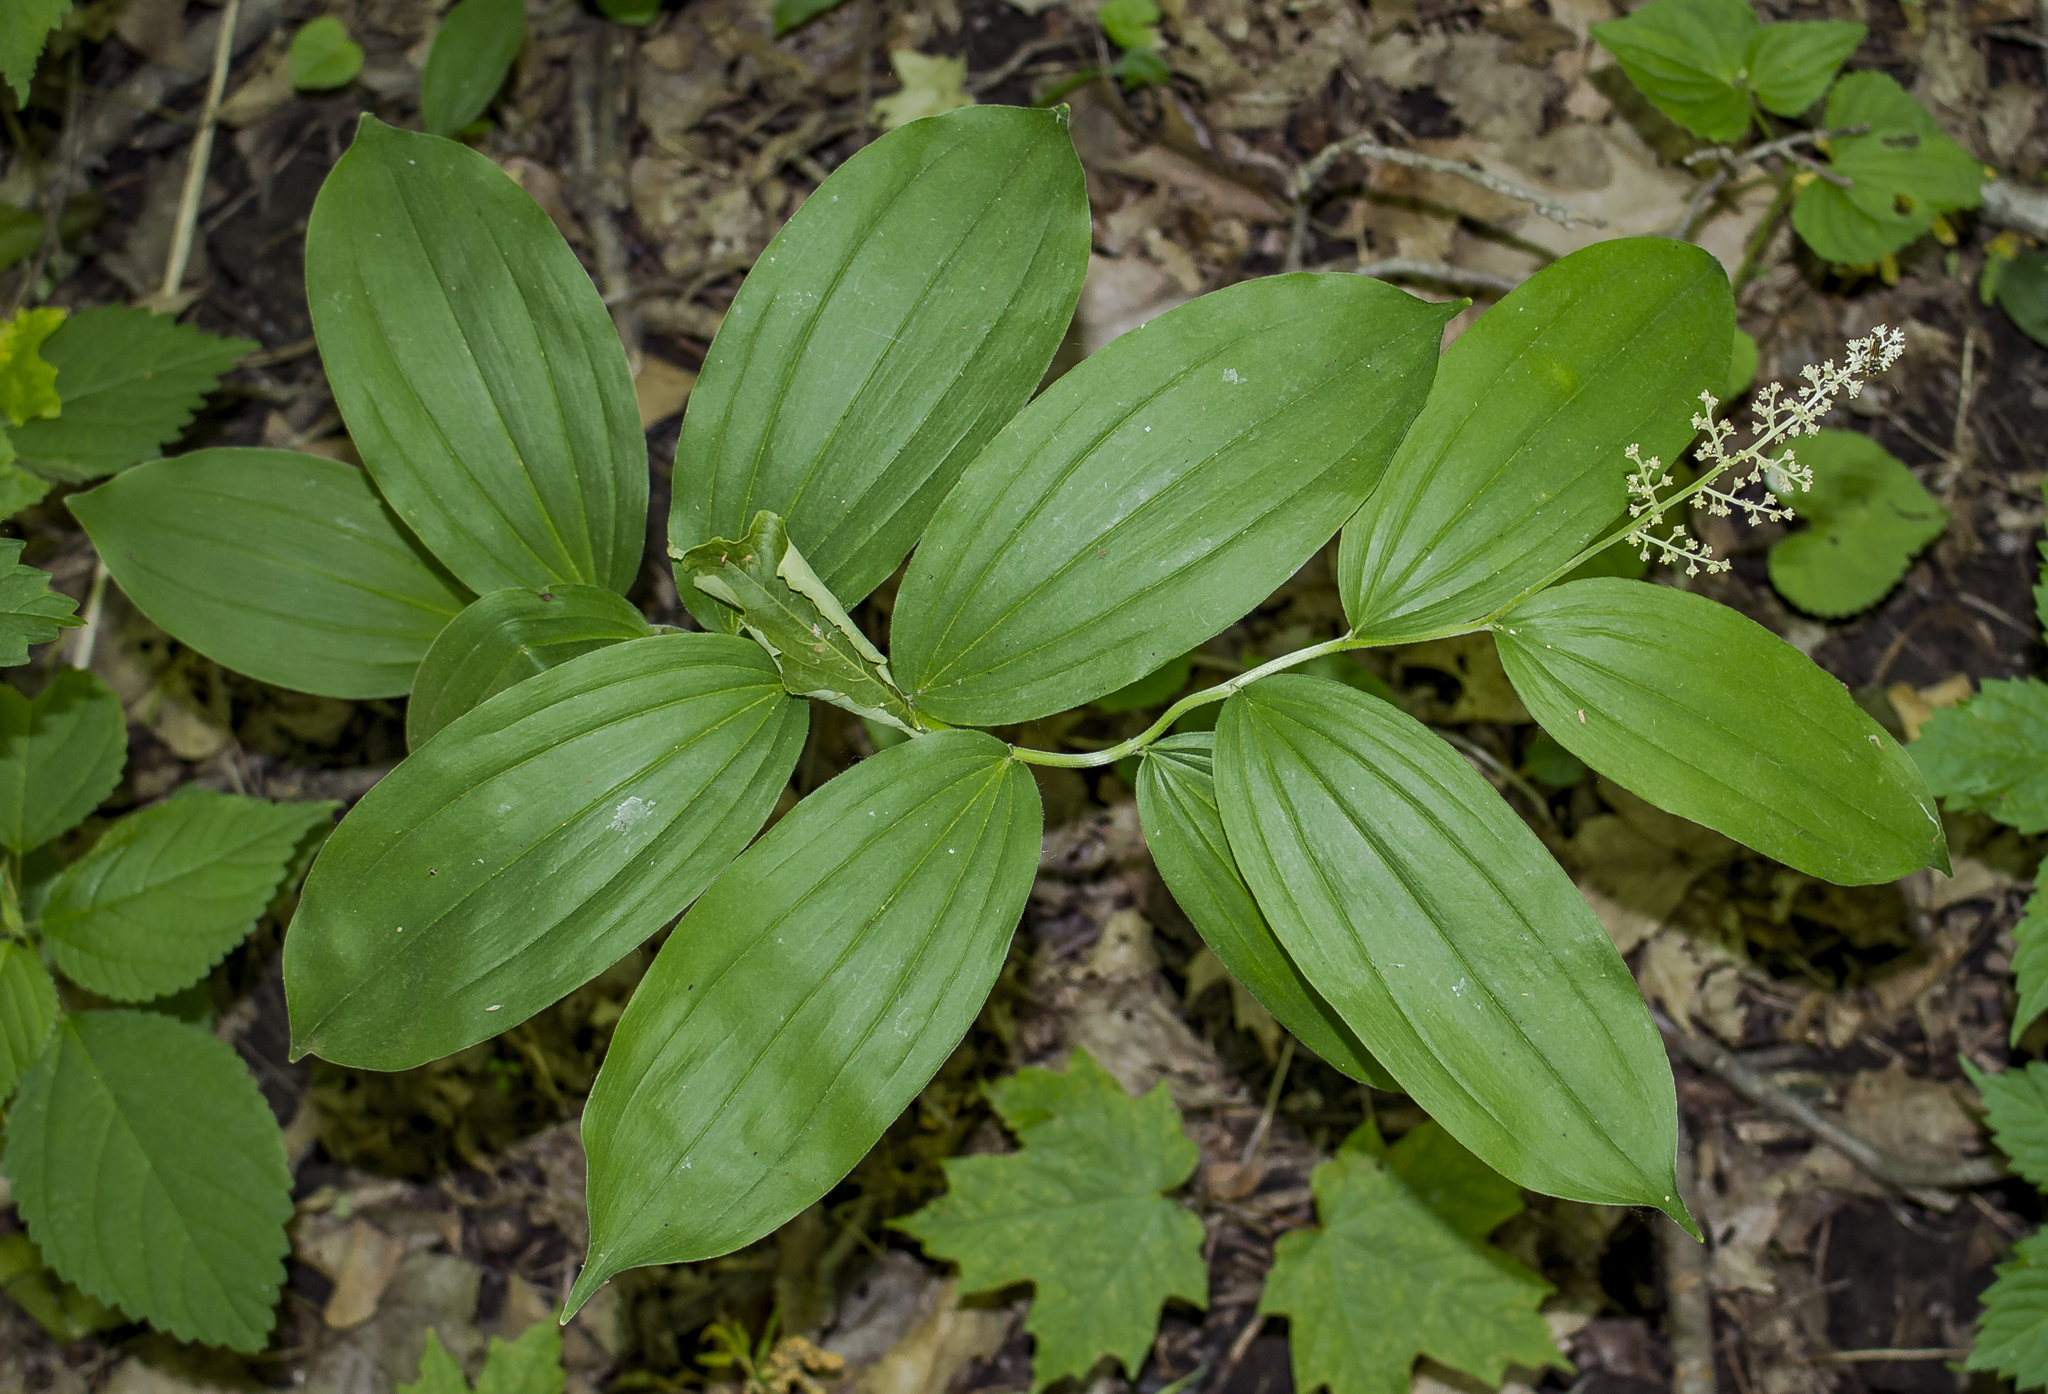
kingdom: Plantae
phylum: Tracheophyta
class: Liliopsida
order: Asparagales
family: Asparagaceae
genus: Maianthemum
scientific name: Maianthemum racemosum
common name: False spikenard
